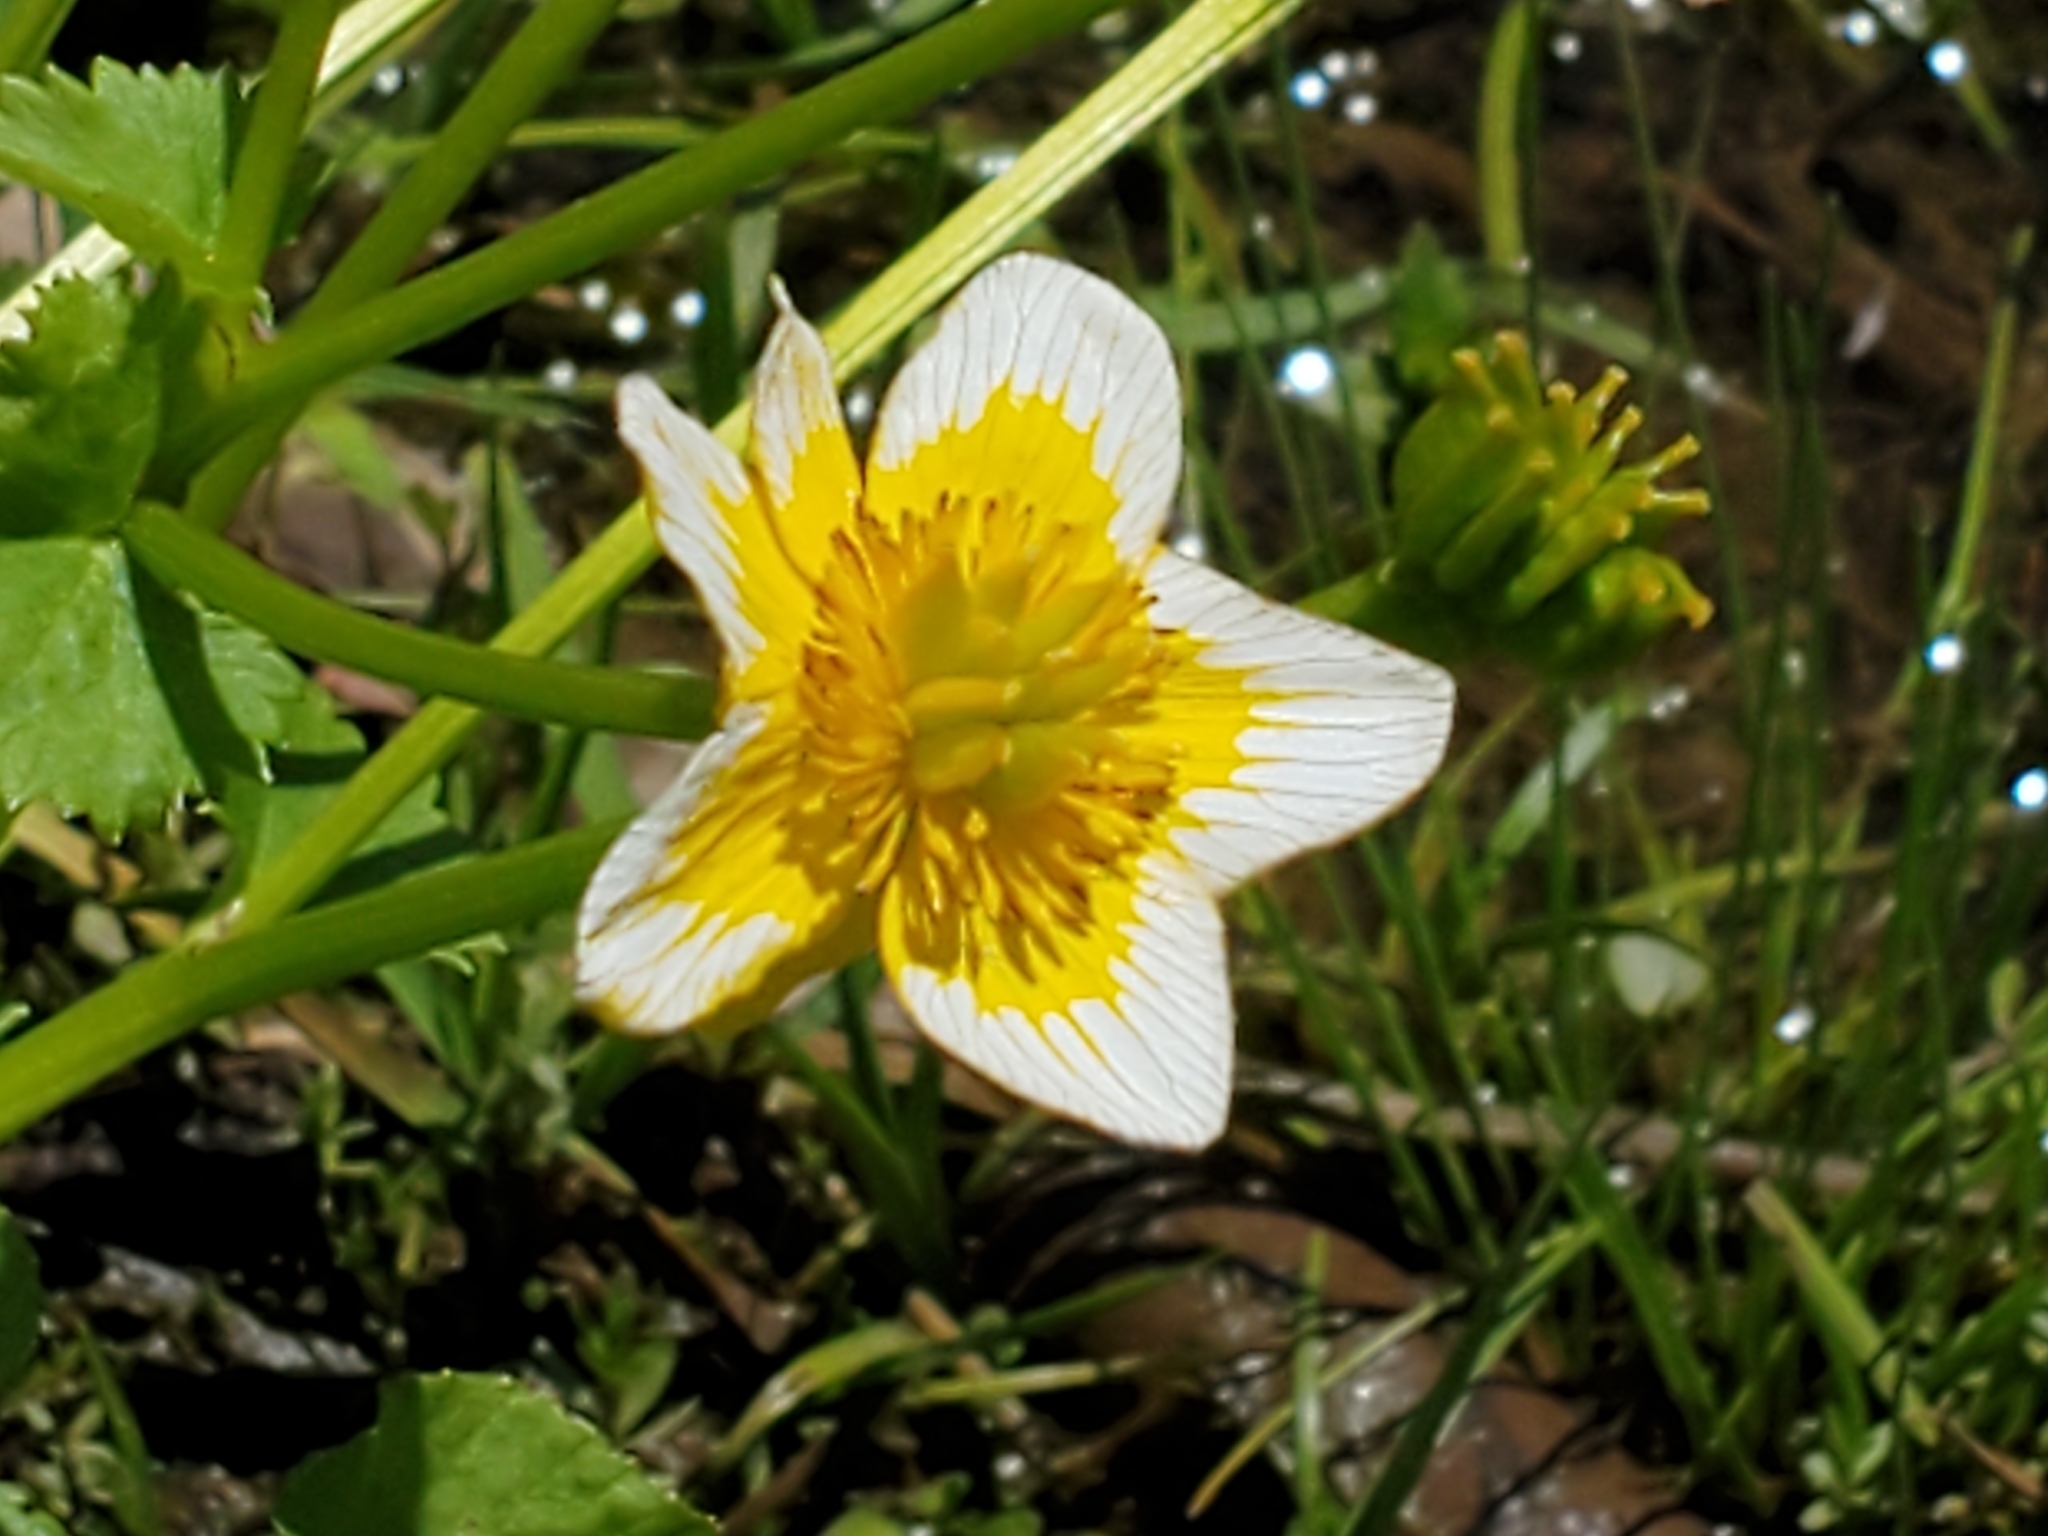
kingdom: Plantae
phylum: Tracheophyta
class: Magnoliopsida
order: Ranunculales
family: Ranunculaceae
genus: Caltha
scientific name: Caltha palustris
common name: Marsh marigold
